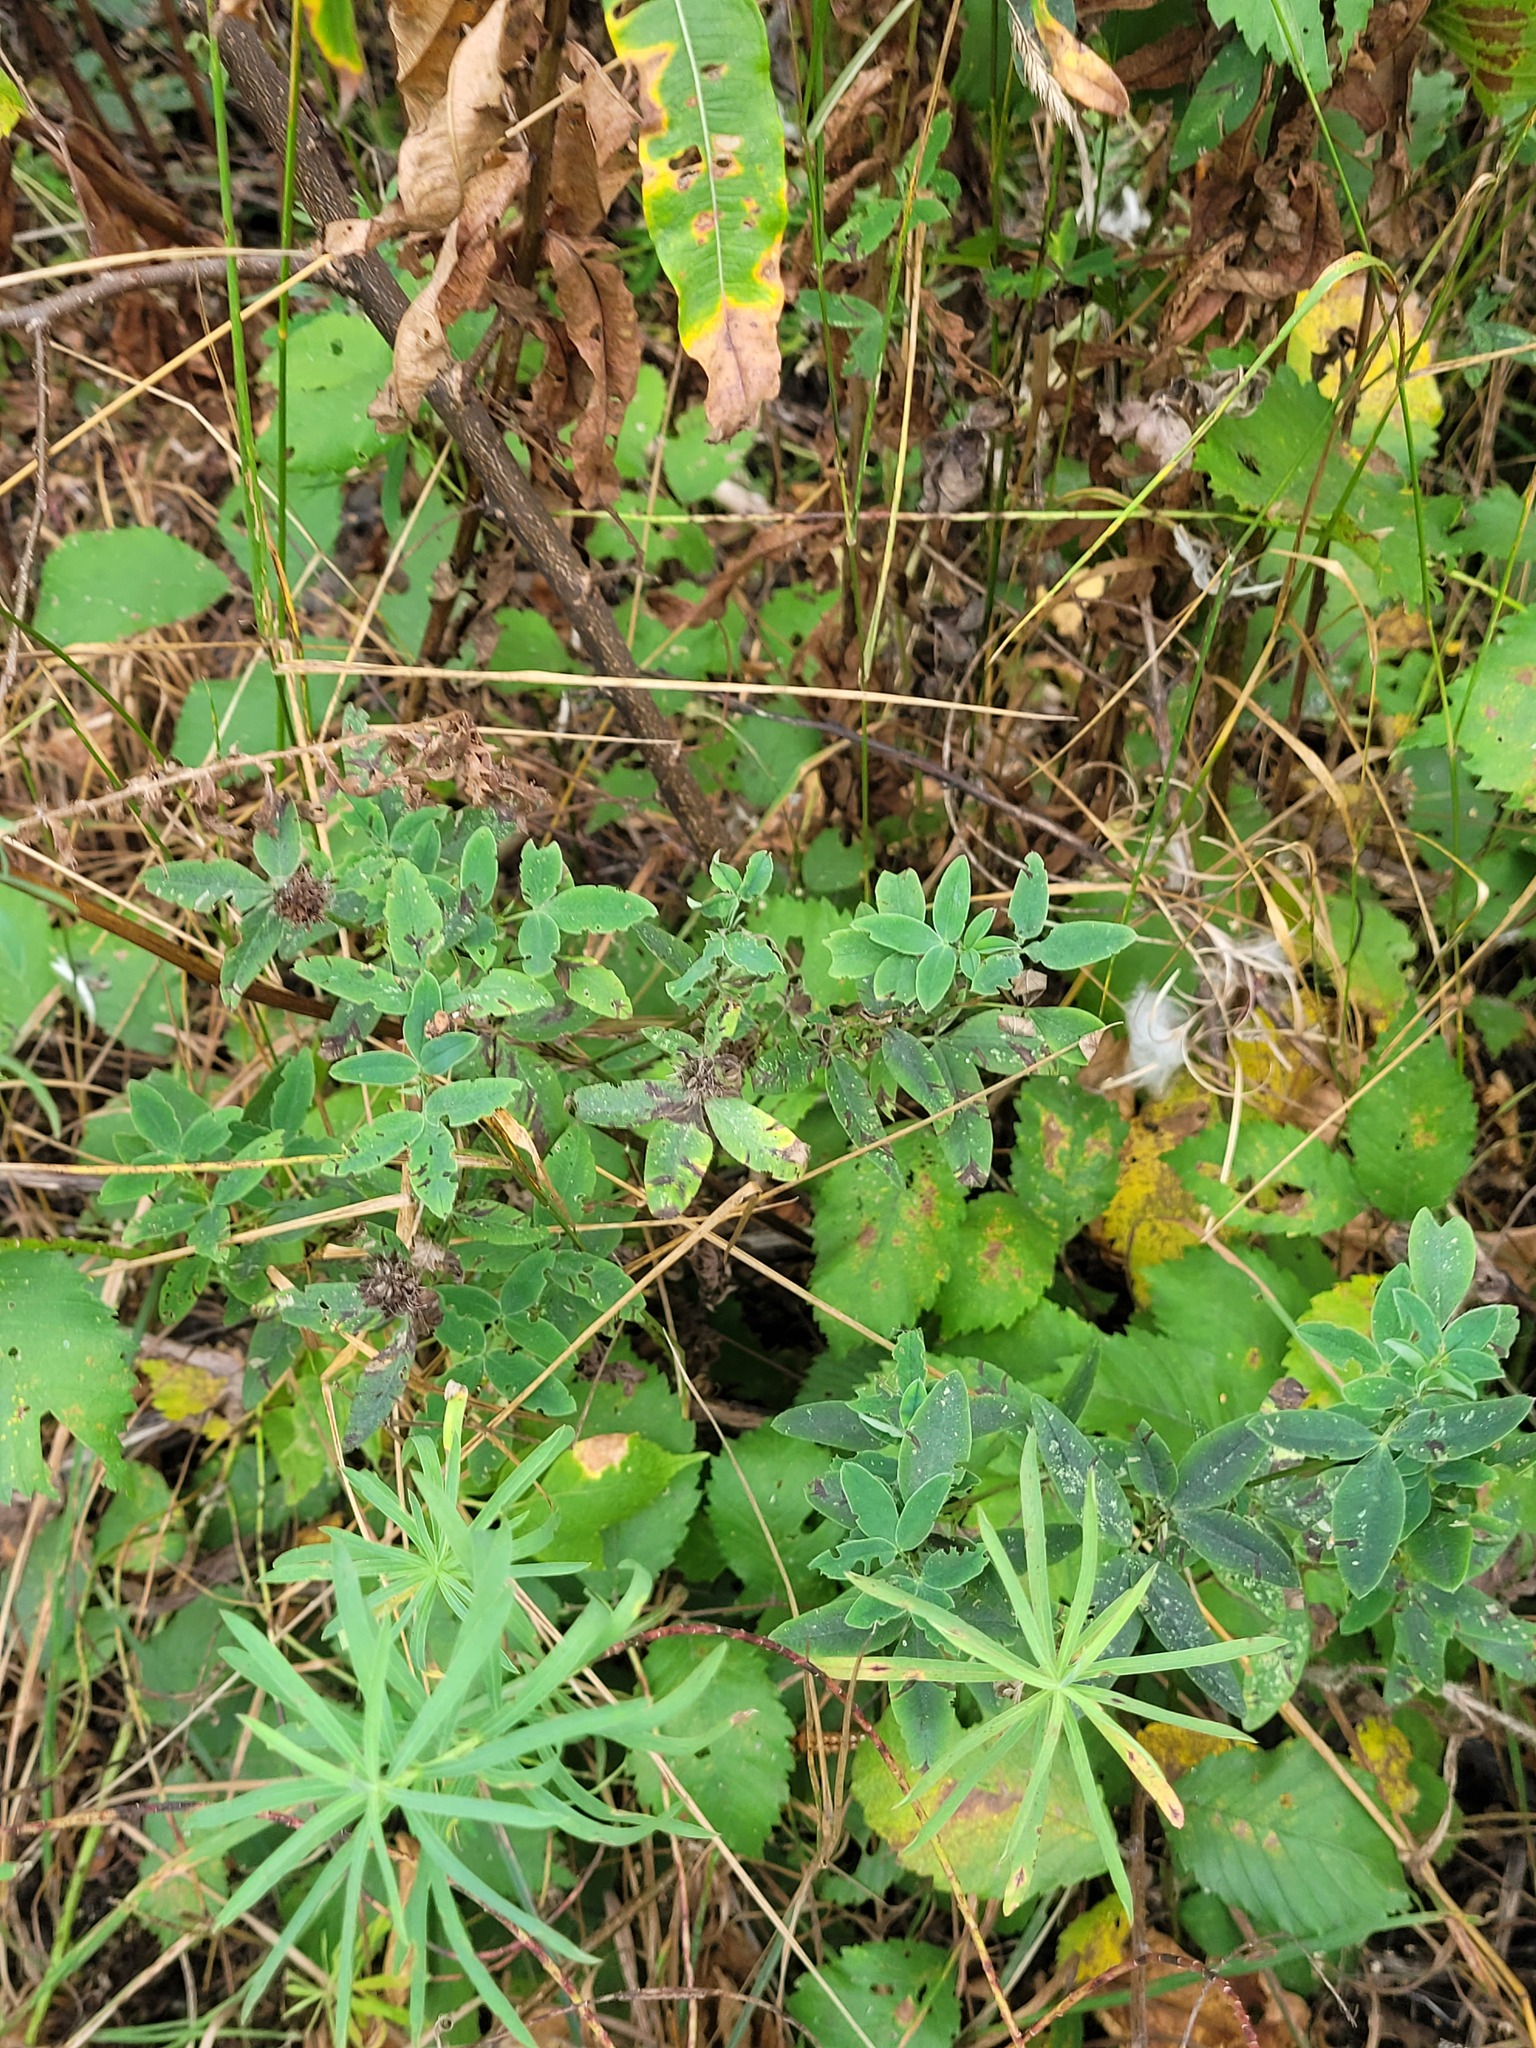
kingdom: Plantae
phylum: Tracheophyta
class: Magnoliopsida
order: Fabales
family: Fabaceae
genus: Trifolium
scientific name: Trifolium medium
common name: Zigzag clover
